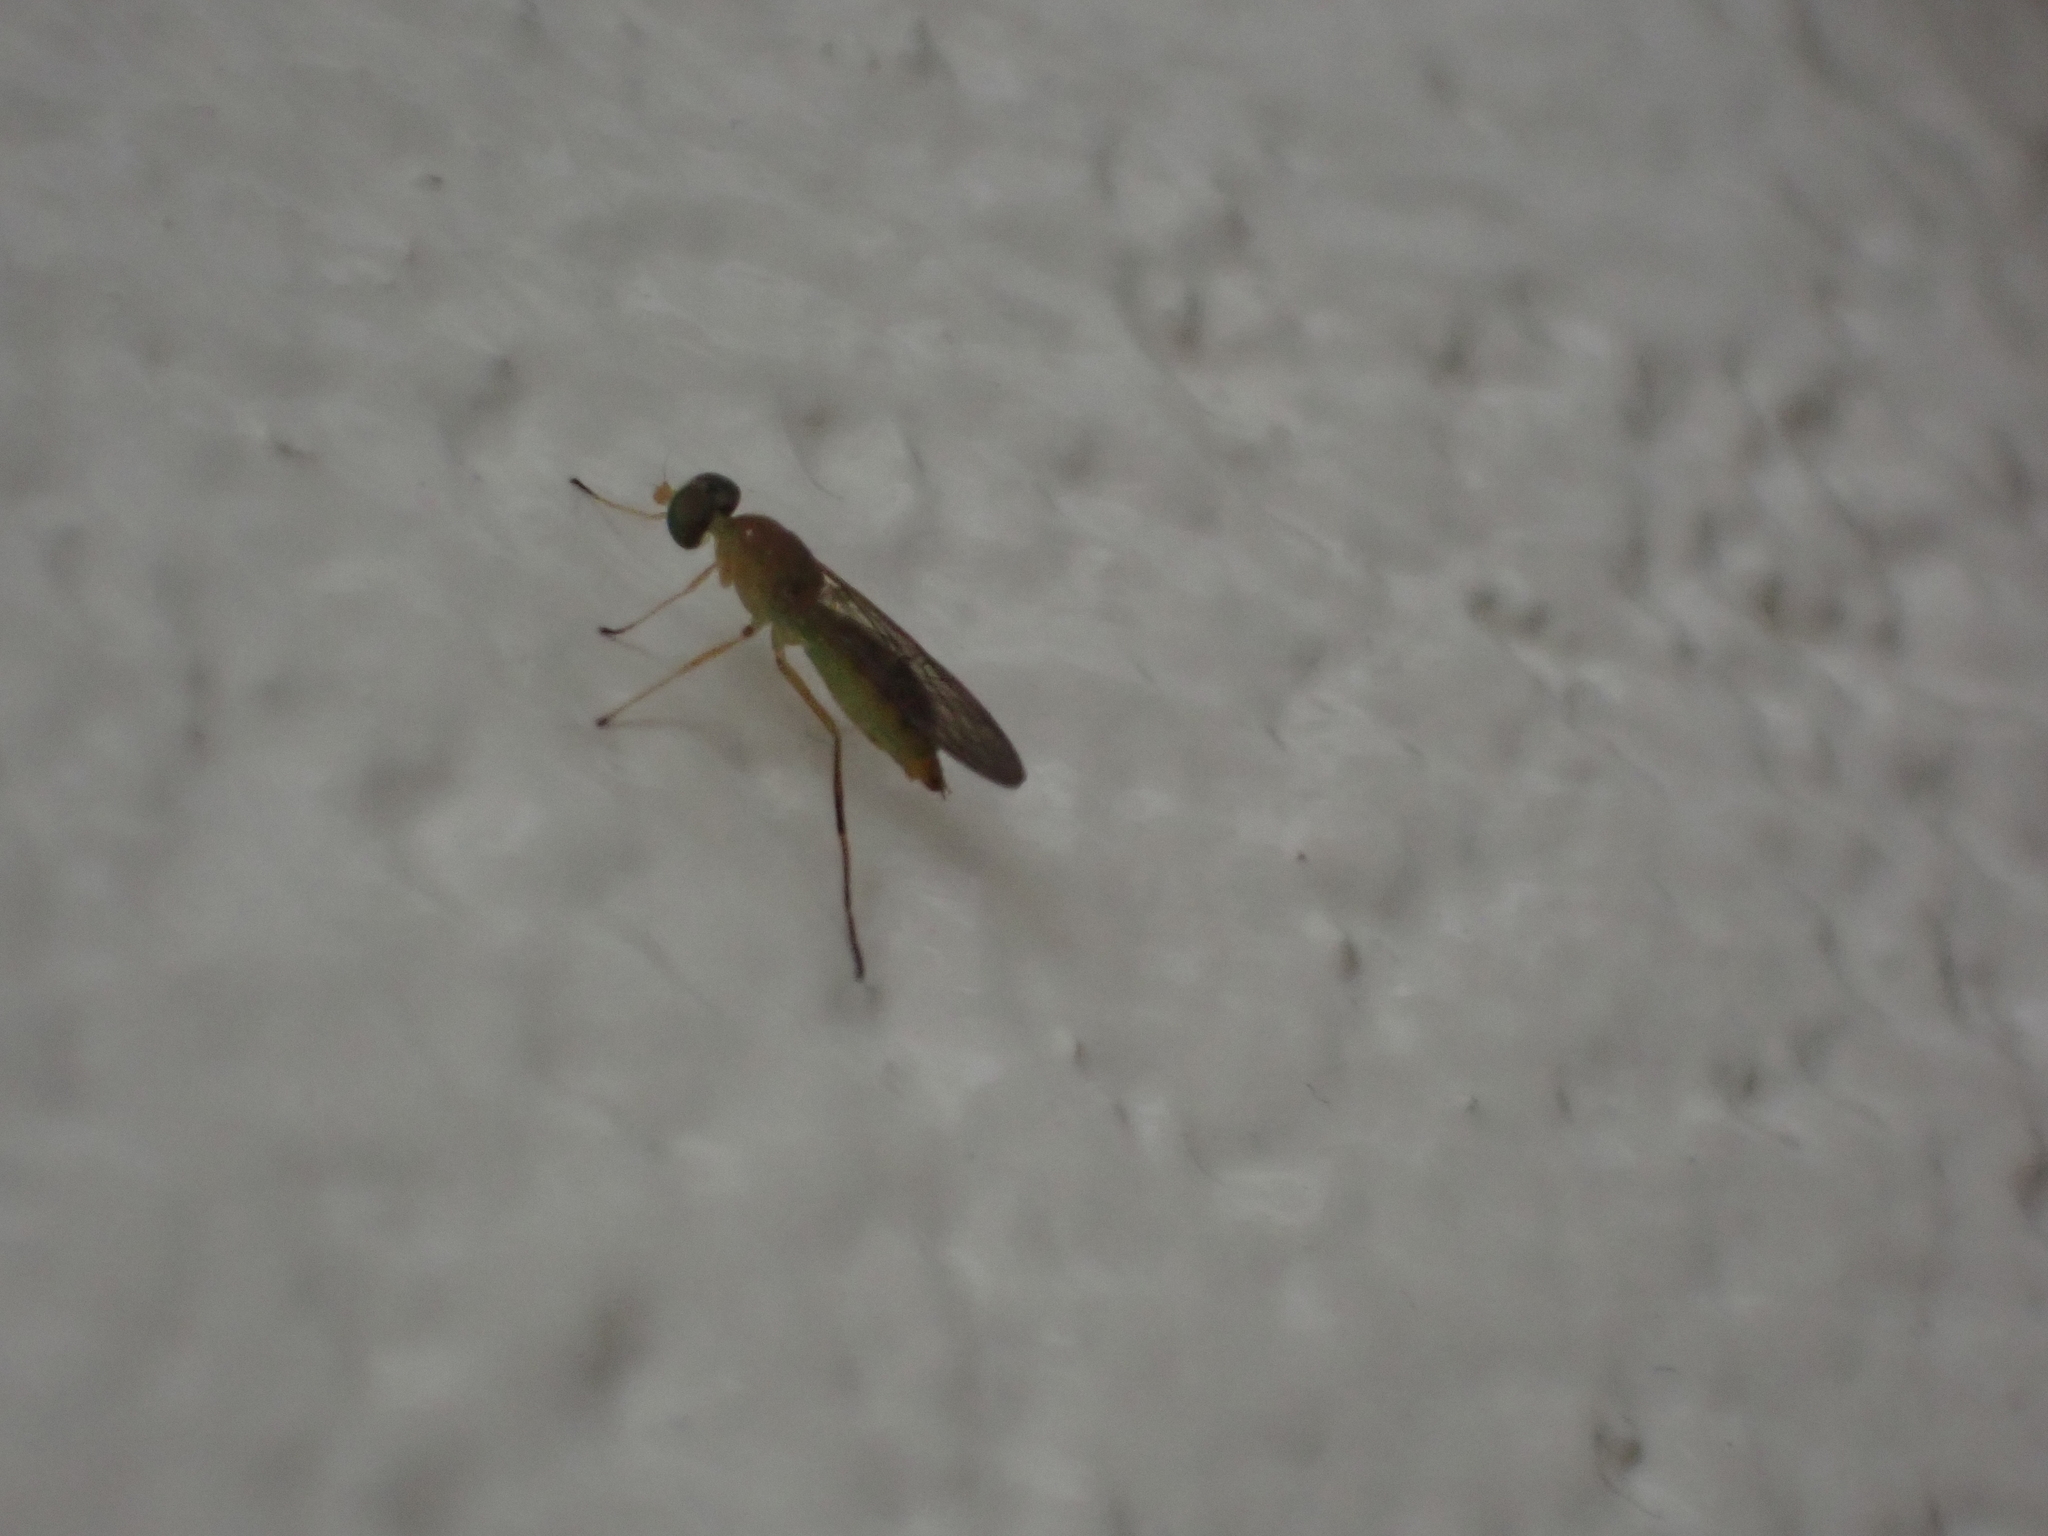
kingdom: Animalia
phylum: Arthropoda
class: Insecta
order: Diptera
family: Stratiomyidae
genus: Ptecticus
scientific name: Ptecticus trivittatus
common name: Compost fly
